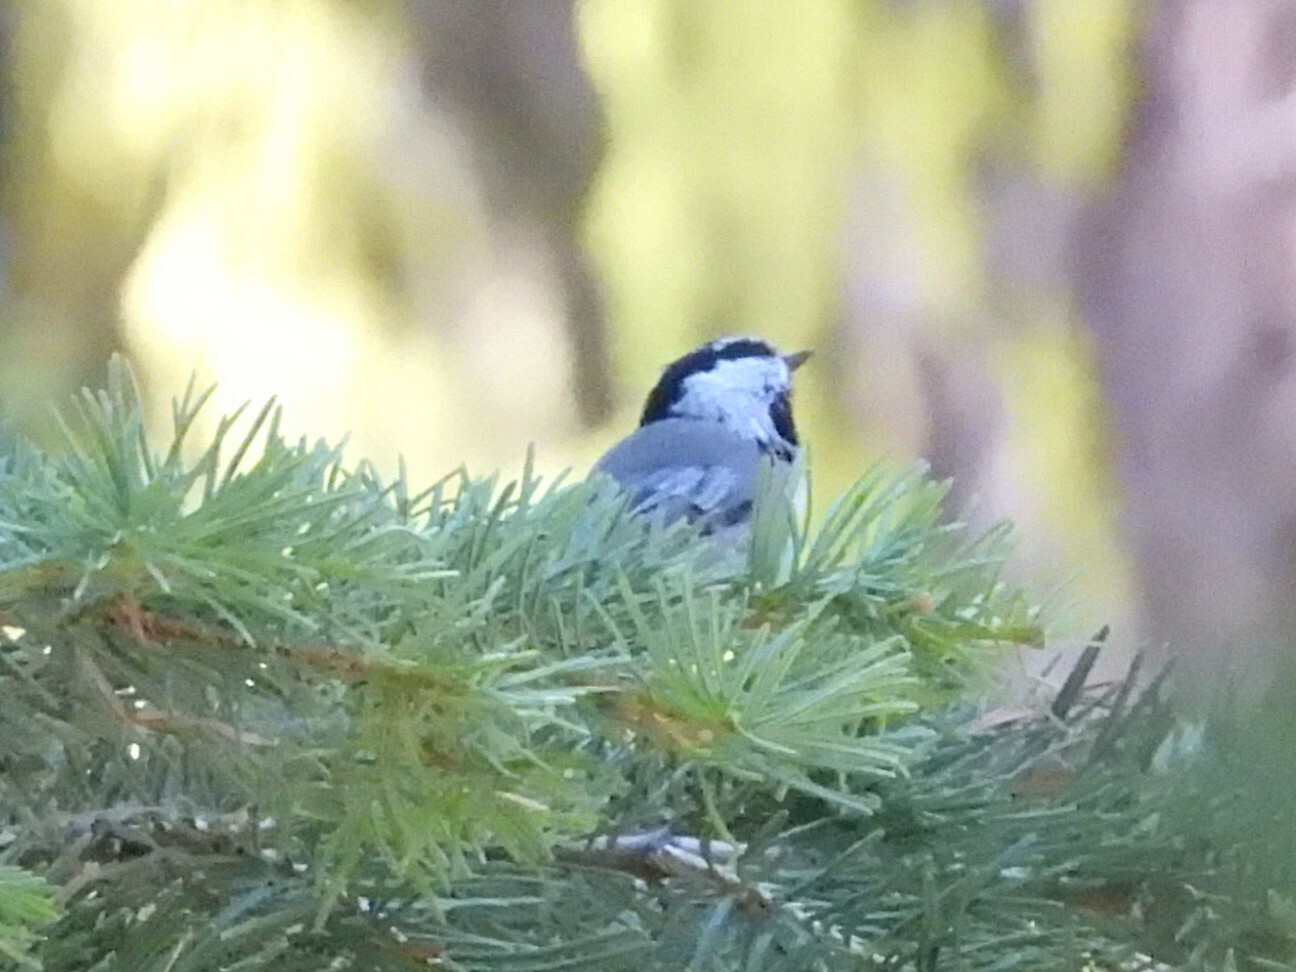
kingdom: Animalia
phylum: Chordata
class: Aves
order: Passeriformes
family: Paridae
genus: Poecile
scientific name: Poecile gambeli
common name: Mountain chickadee
